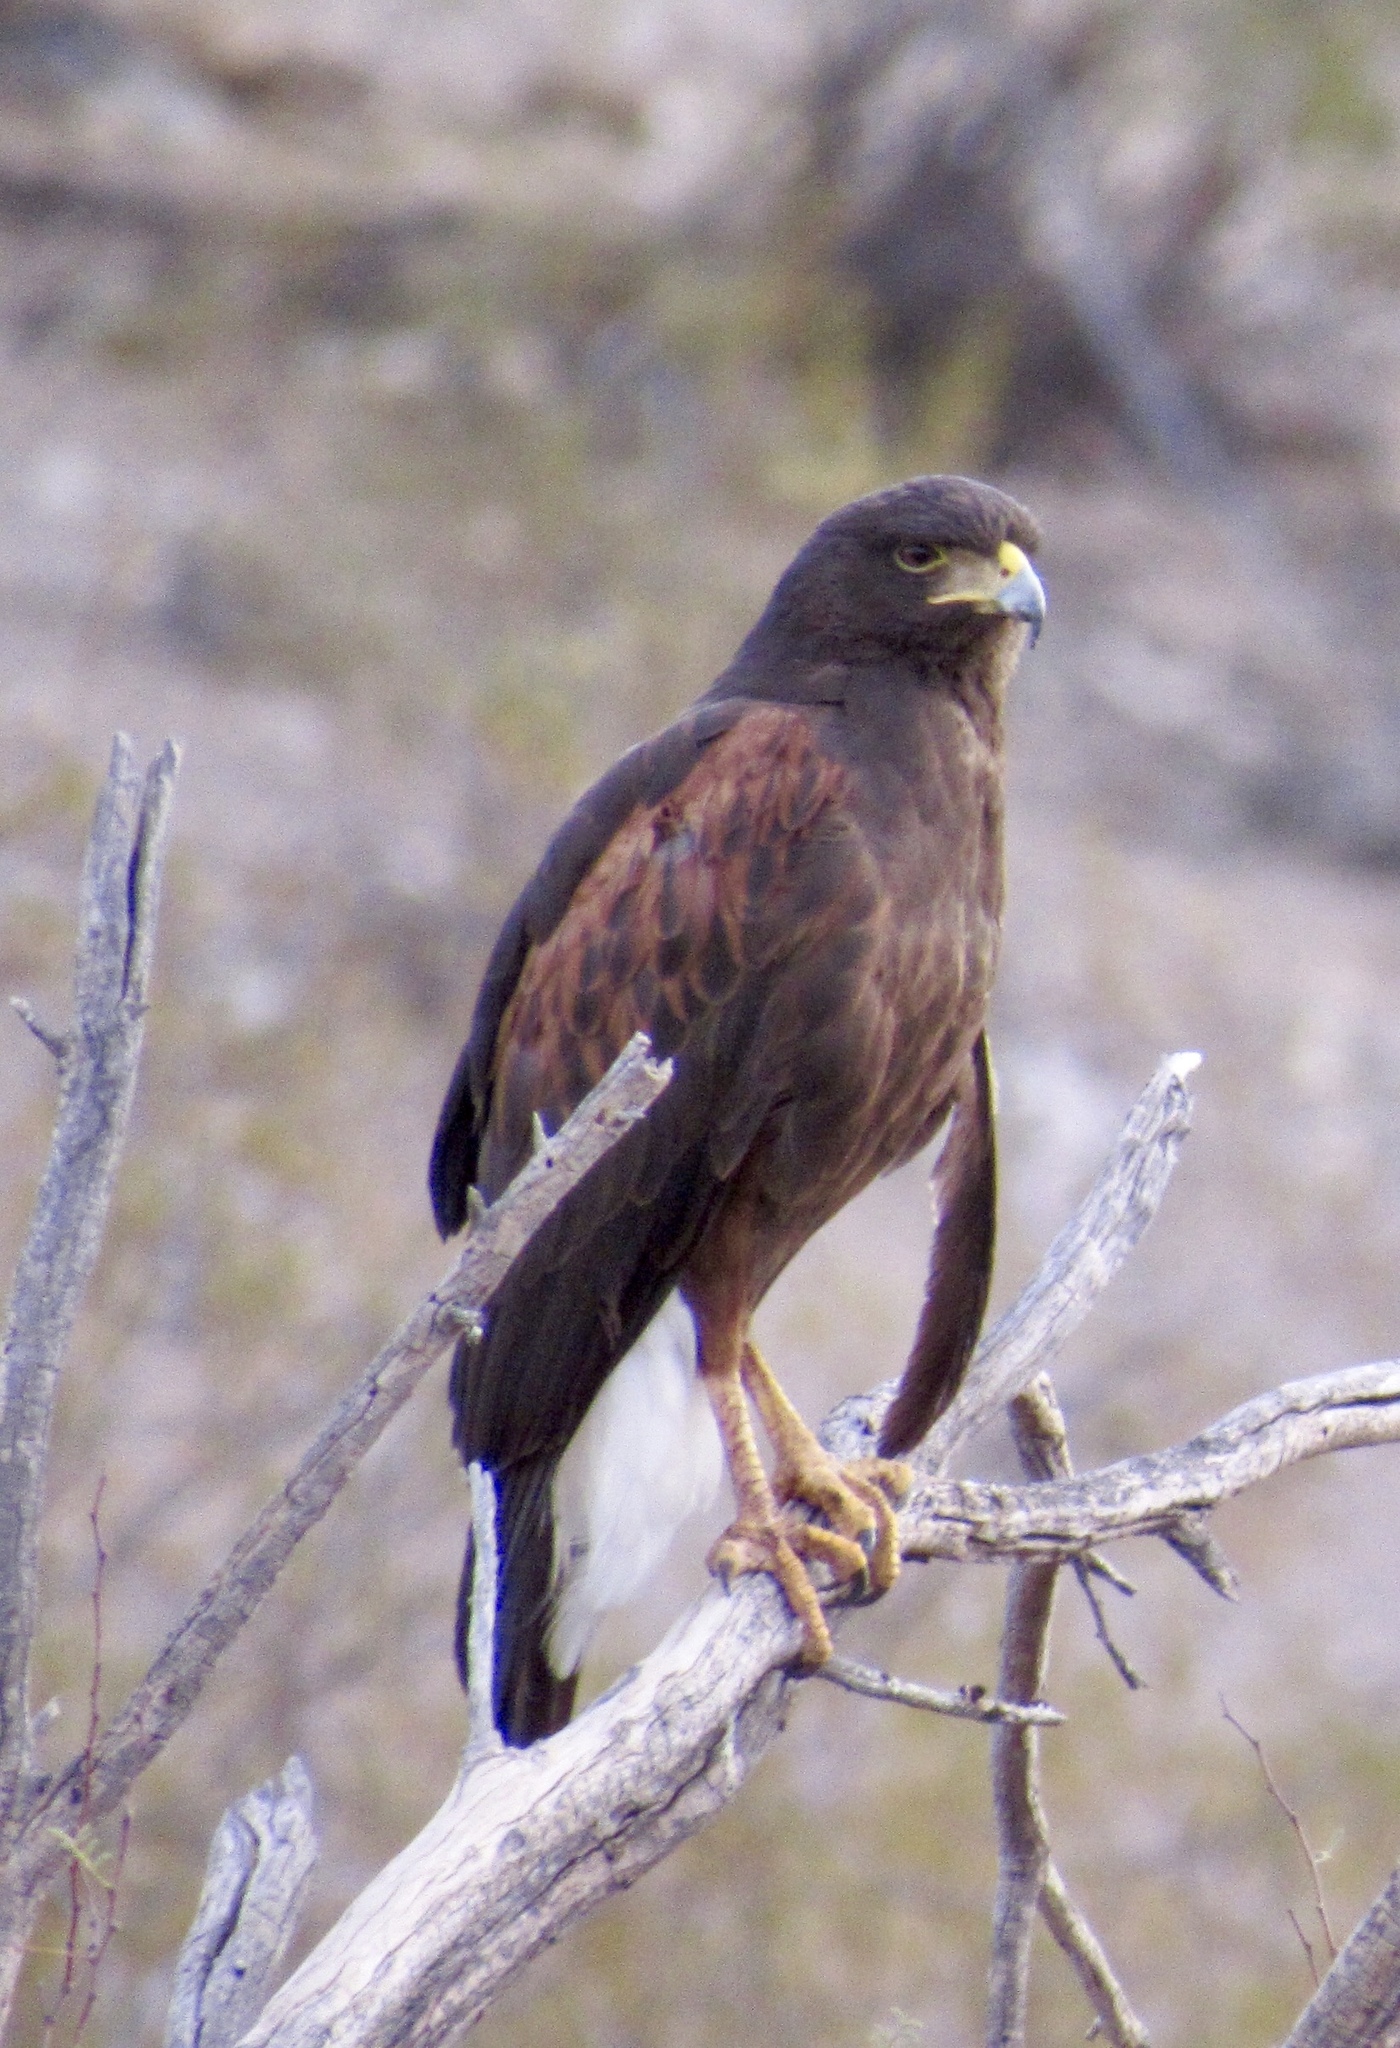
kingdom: Animalia
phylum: Chordata
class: Aves
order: Accipitriformes
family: Accipitridae
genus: Parabuteo
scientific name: Parabuteo unicinctus
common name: Harris's hawk
